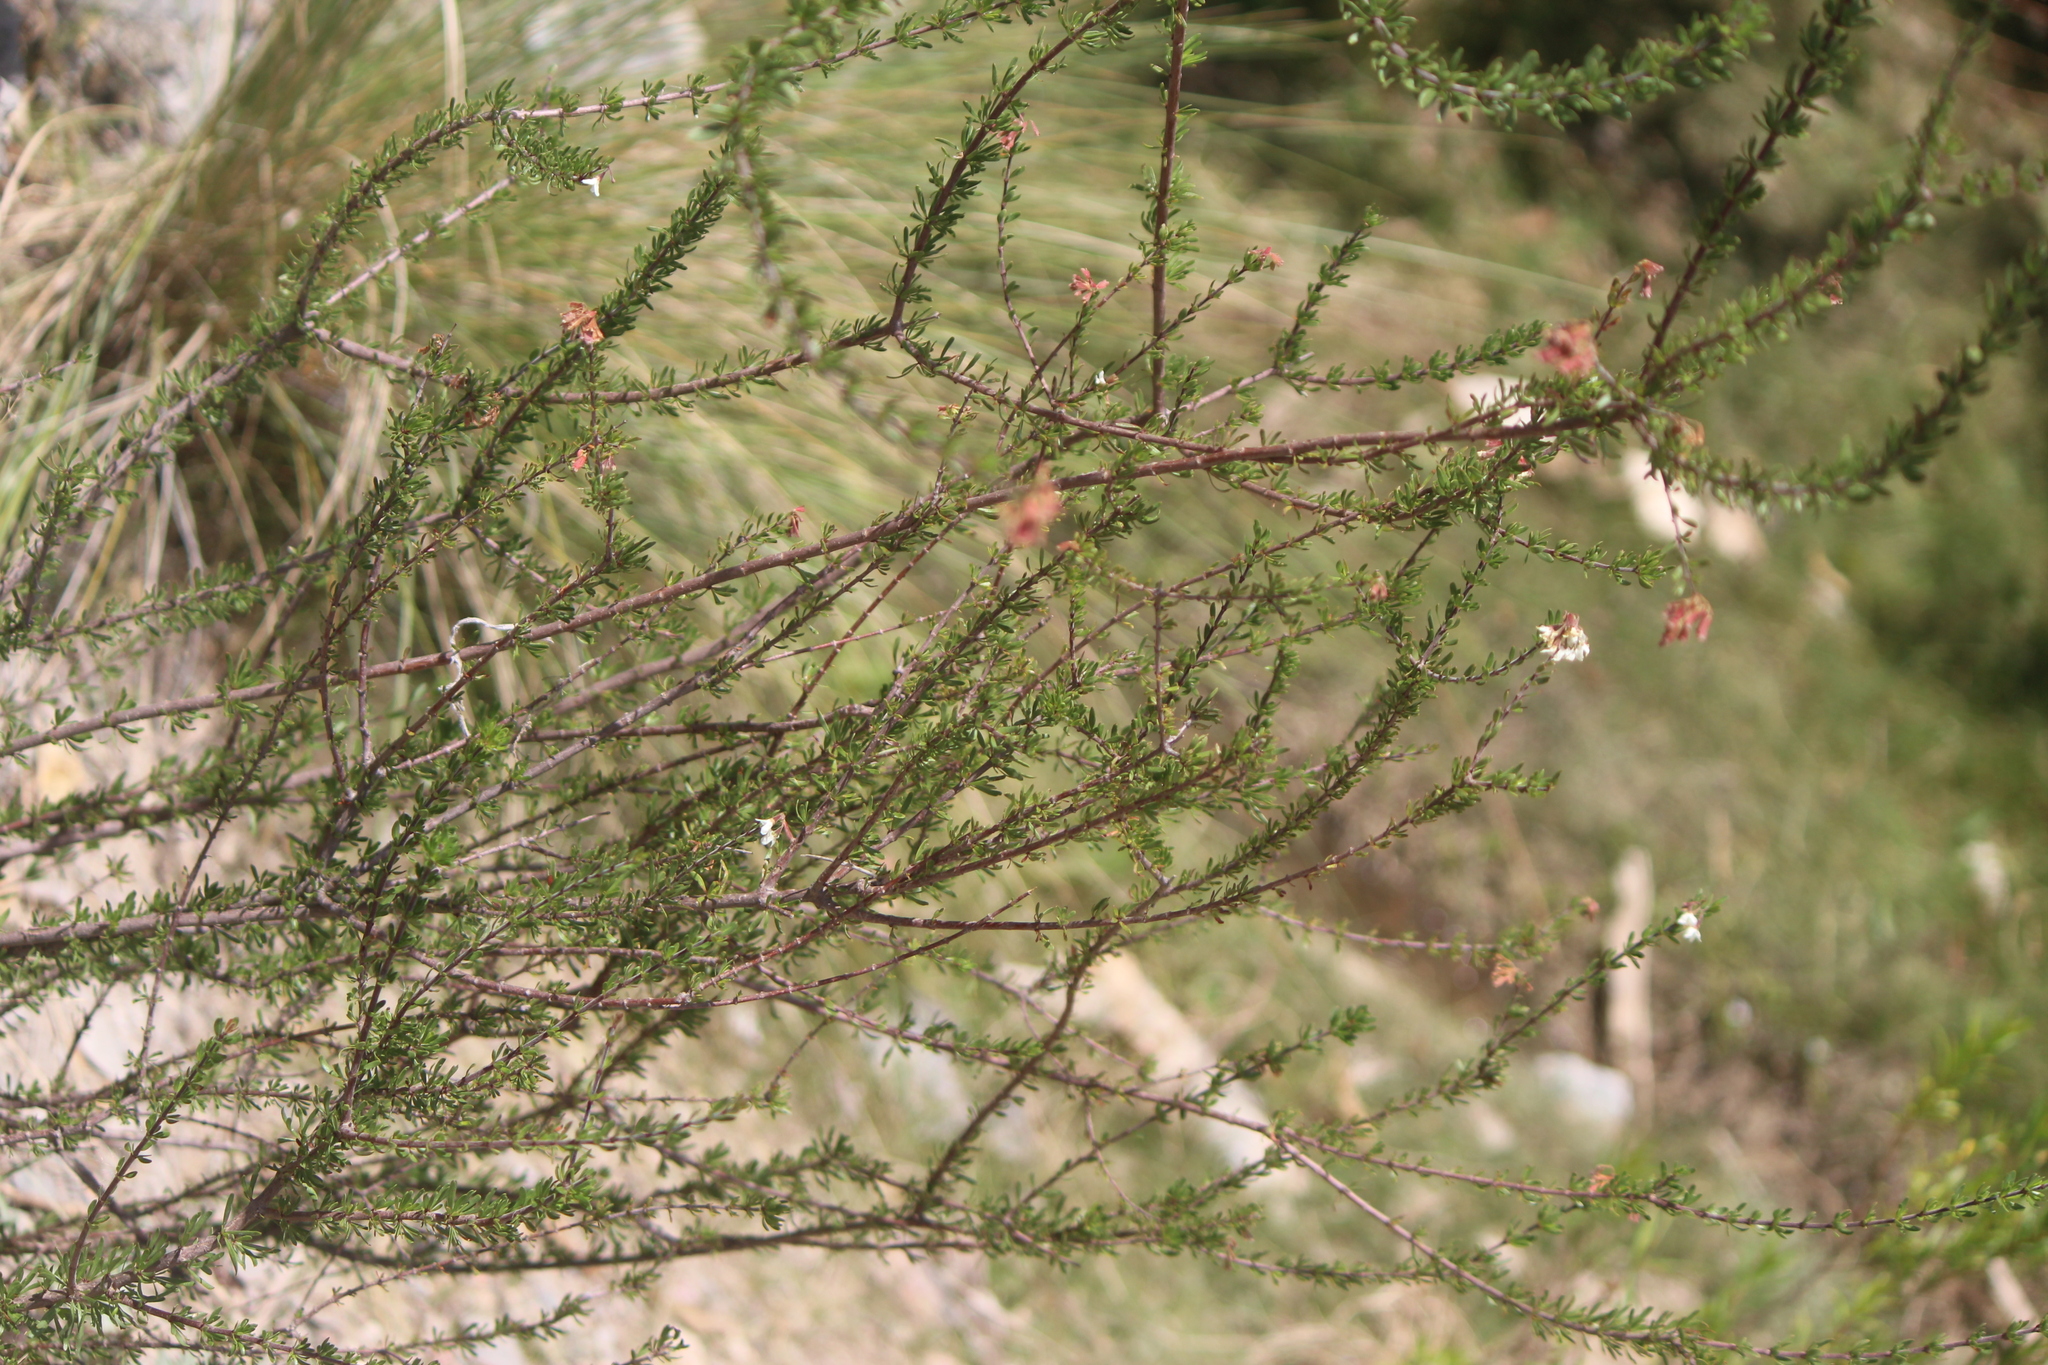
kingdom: Plantae
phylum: Tracheophyta
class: Magnoliopsida
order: Gentianales
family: Rubiaceae
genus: Machaonia
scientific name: Machaonia coulteri
